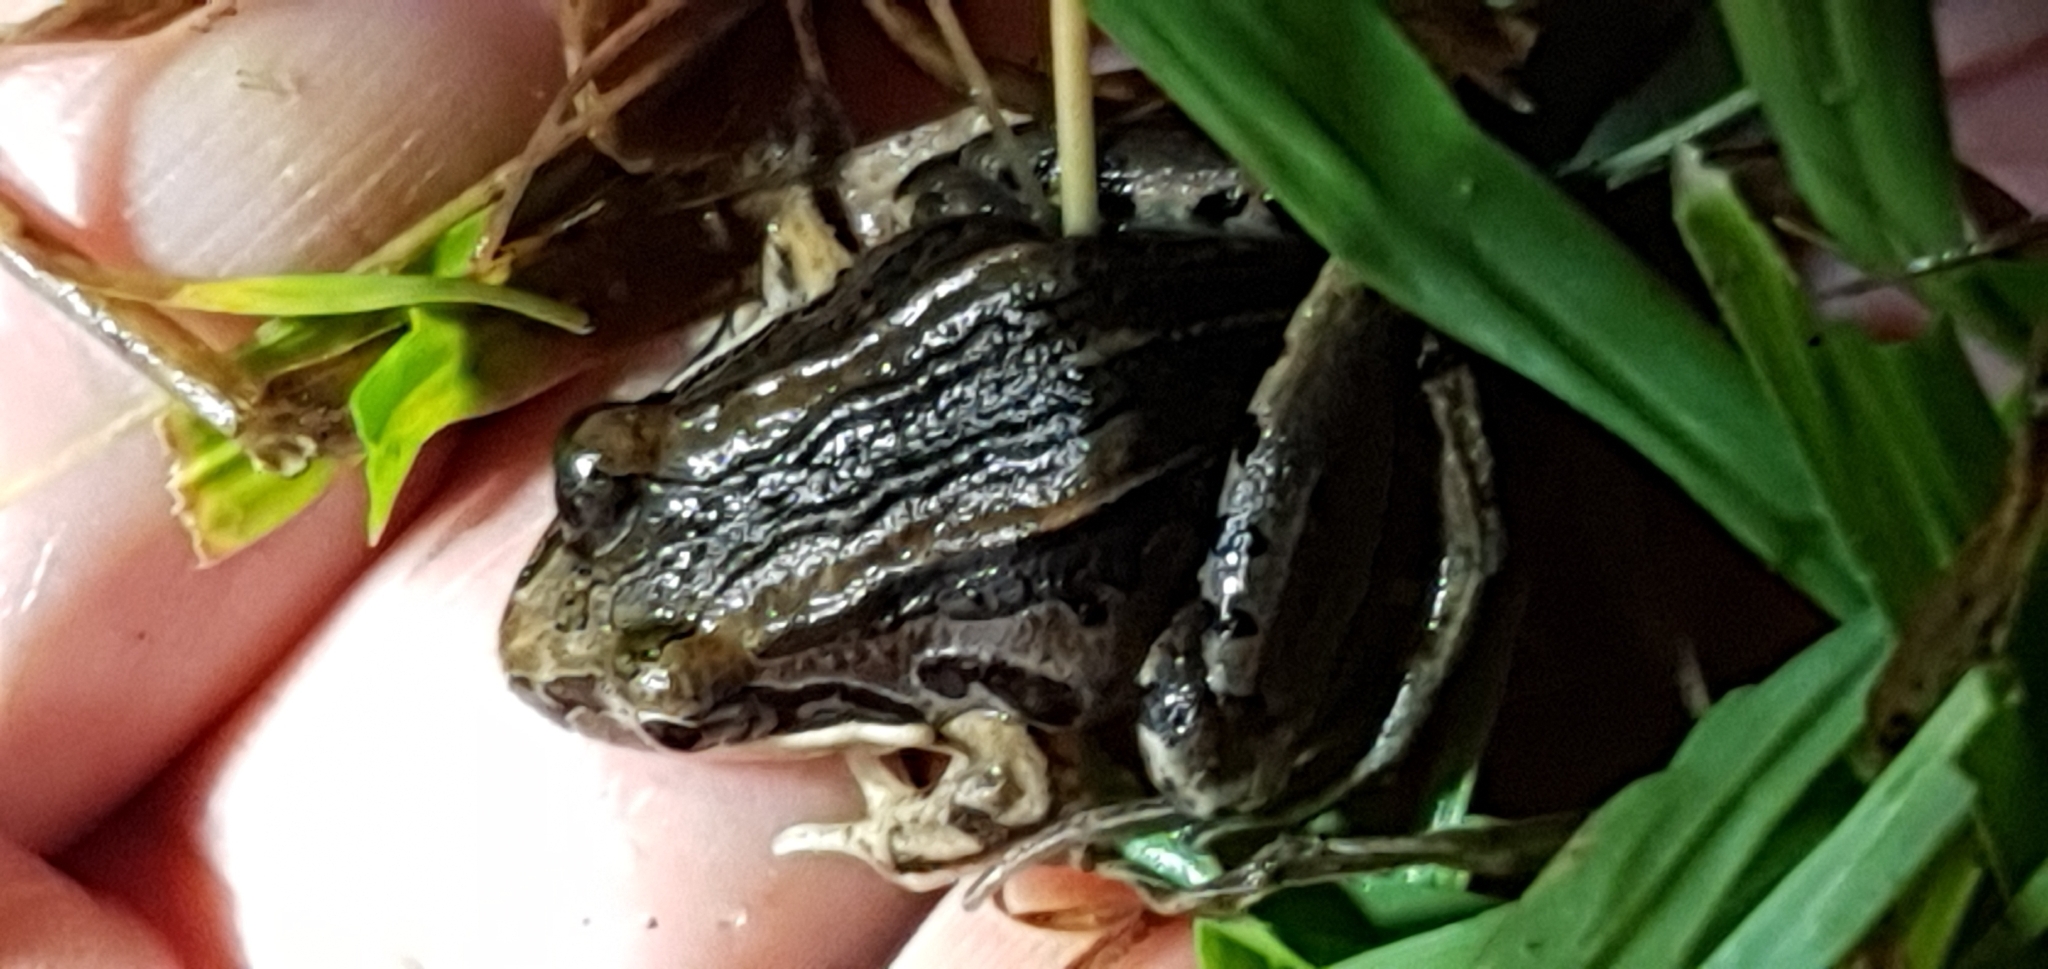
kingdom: Animalia
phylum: Chordata
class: Amphibia
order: Anura
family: Limnodynastidae
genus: Limnodynastes
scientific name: Limnodynastes peronii
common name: Brown frog
